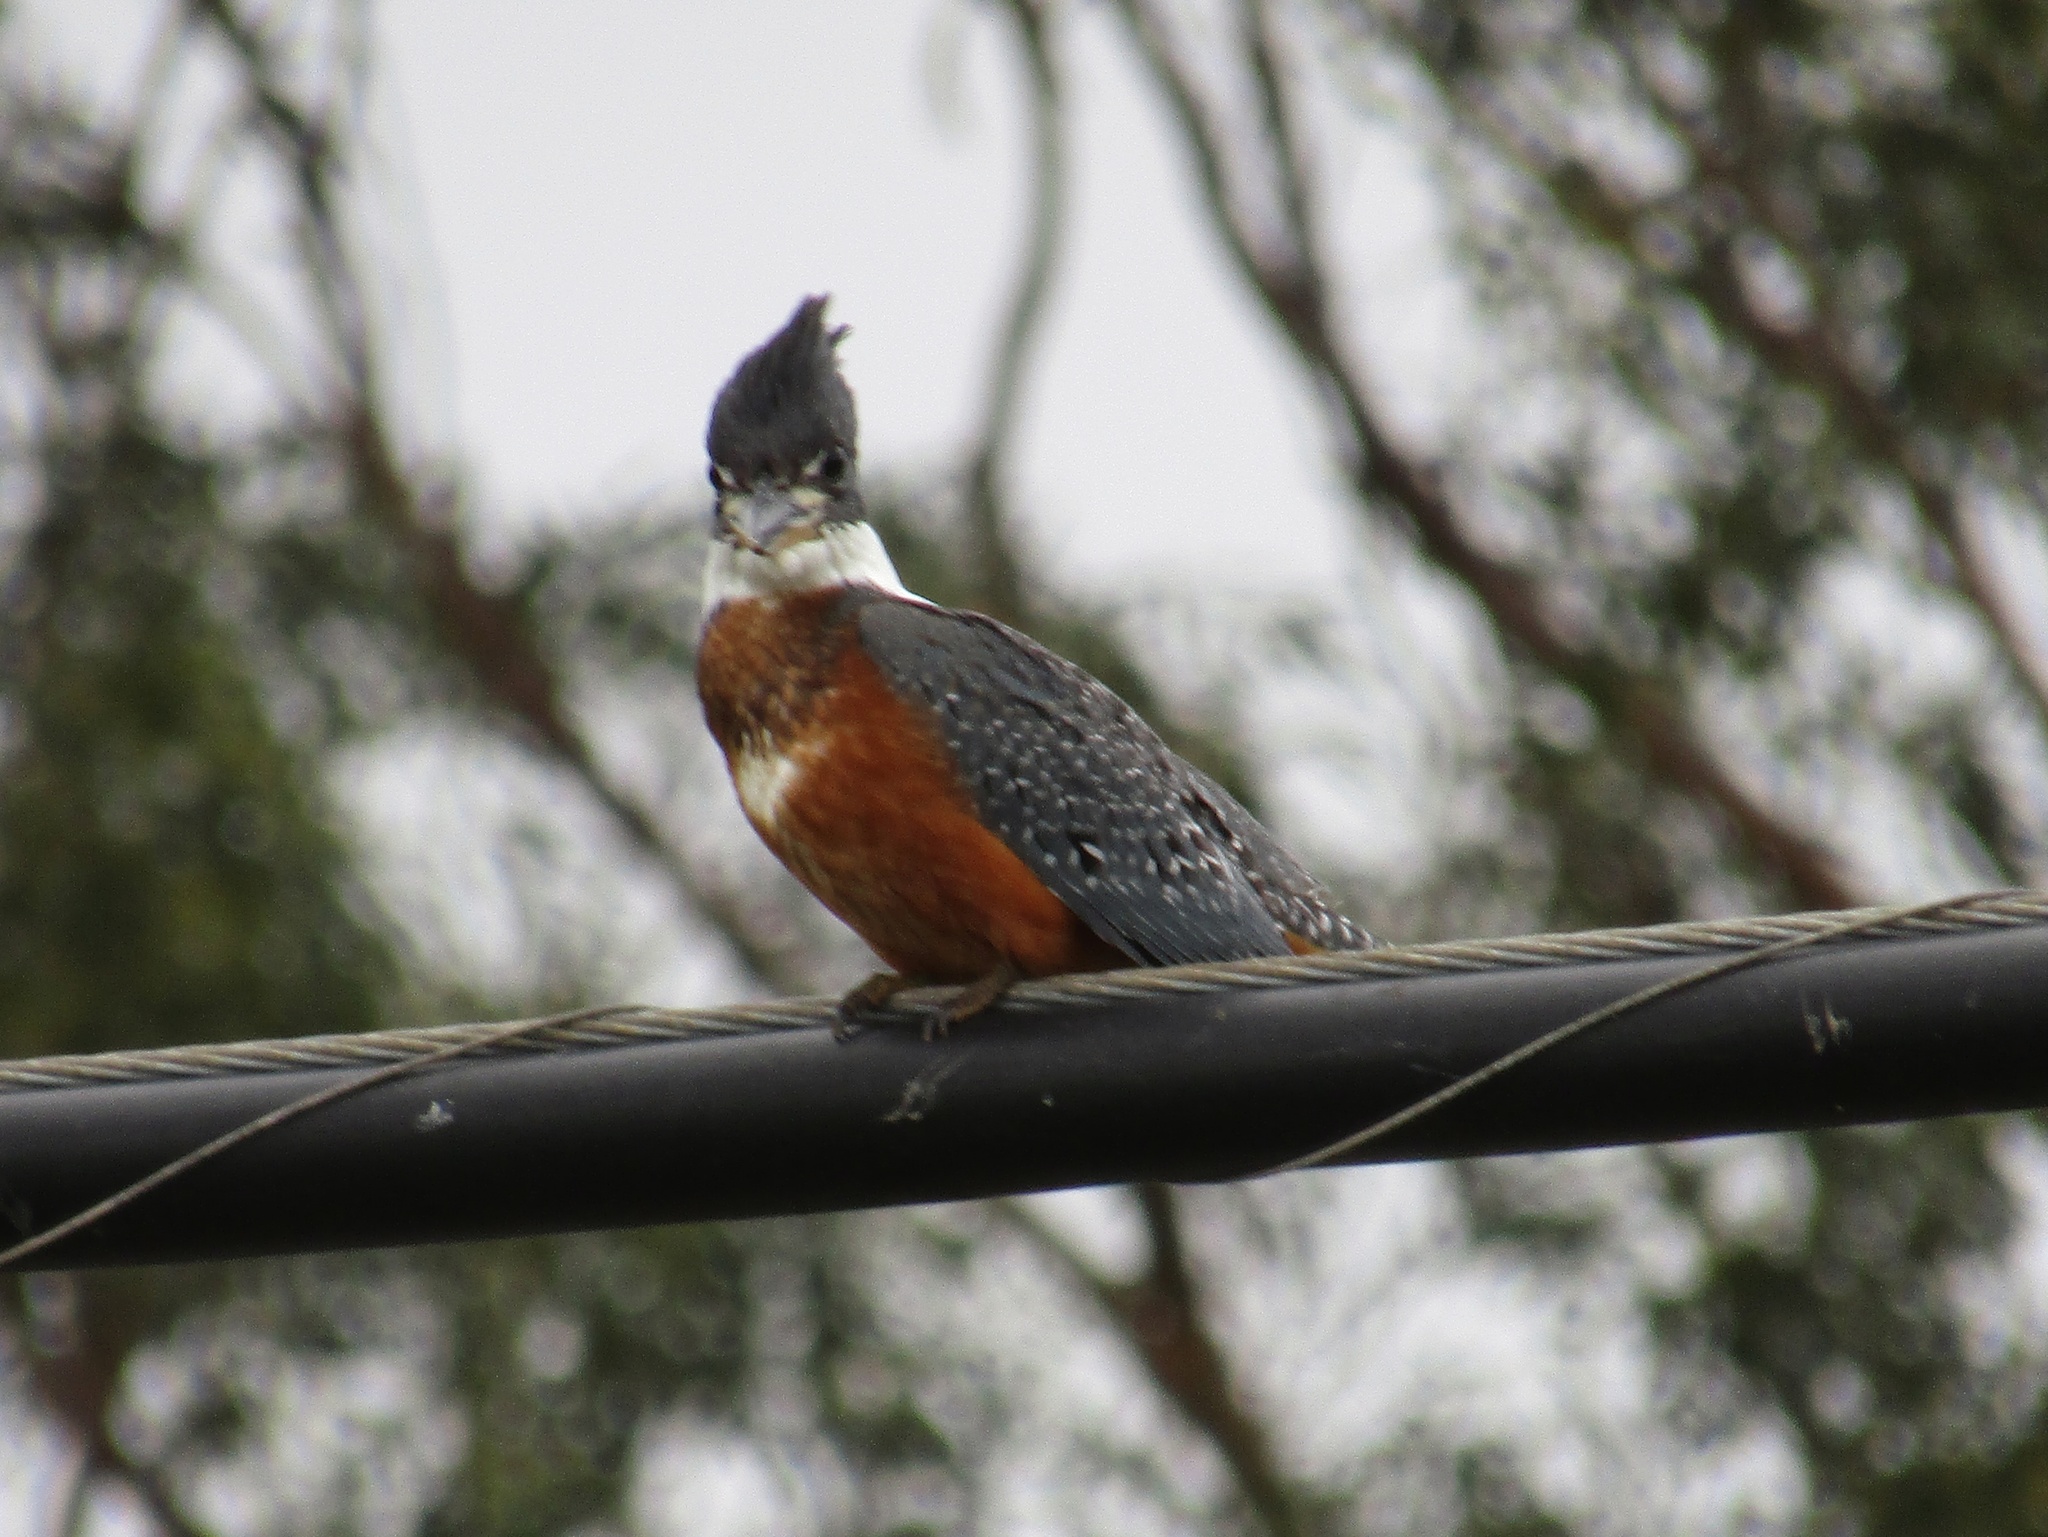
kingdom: Animalia
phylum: Chordata
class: Aves
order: Coraciiformes
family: Alcedinidae
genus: Megaceryle
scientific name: Megaceryle torquata
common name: Ringed kingfisher
